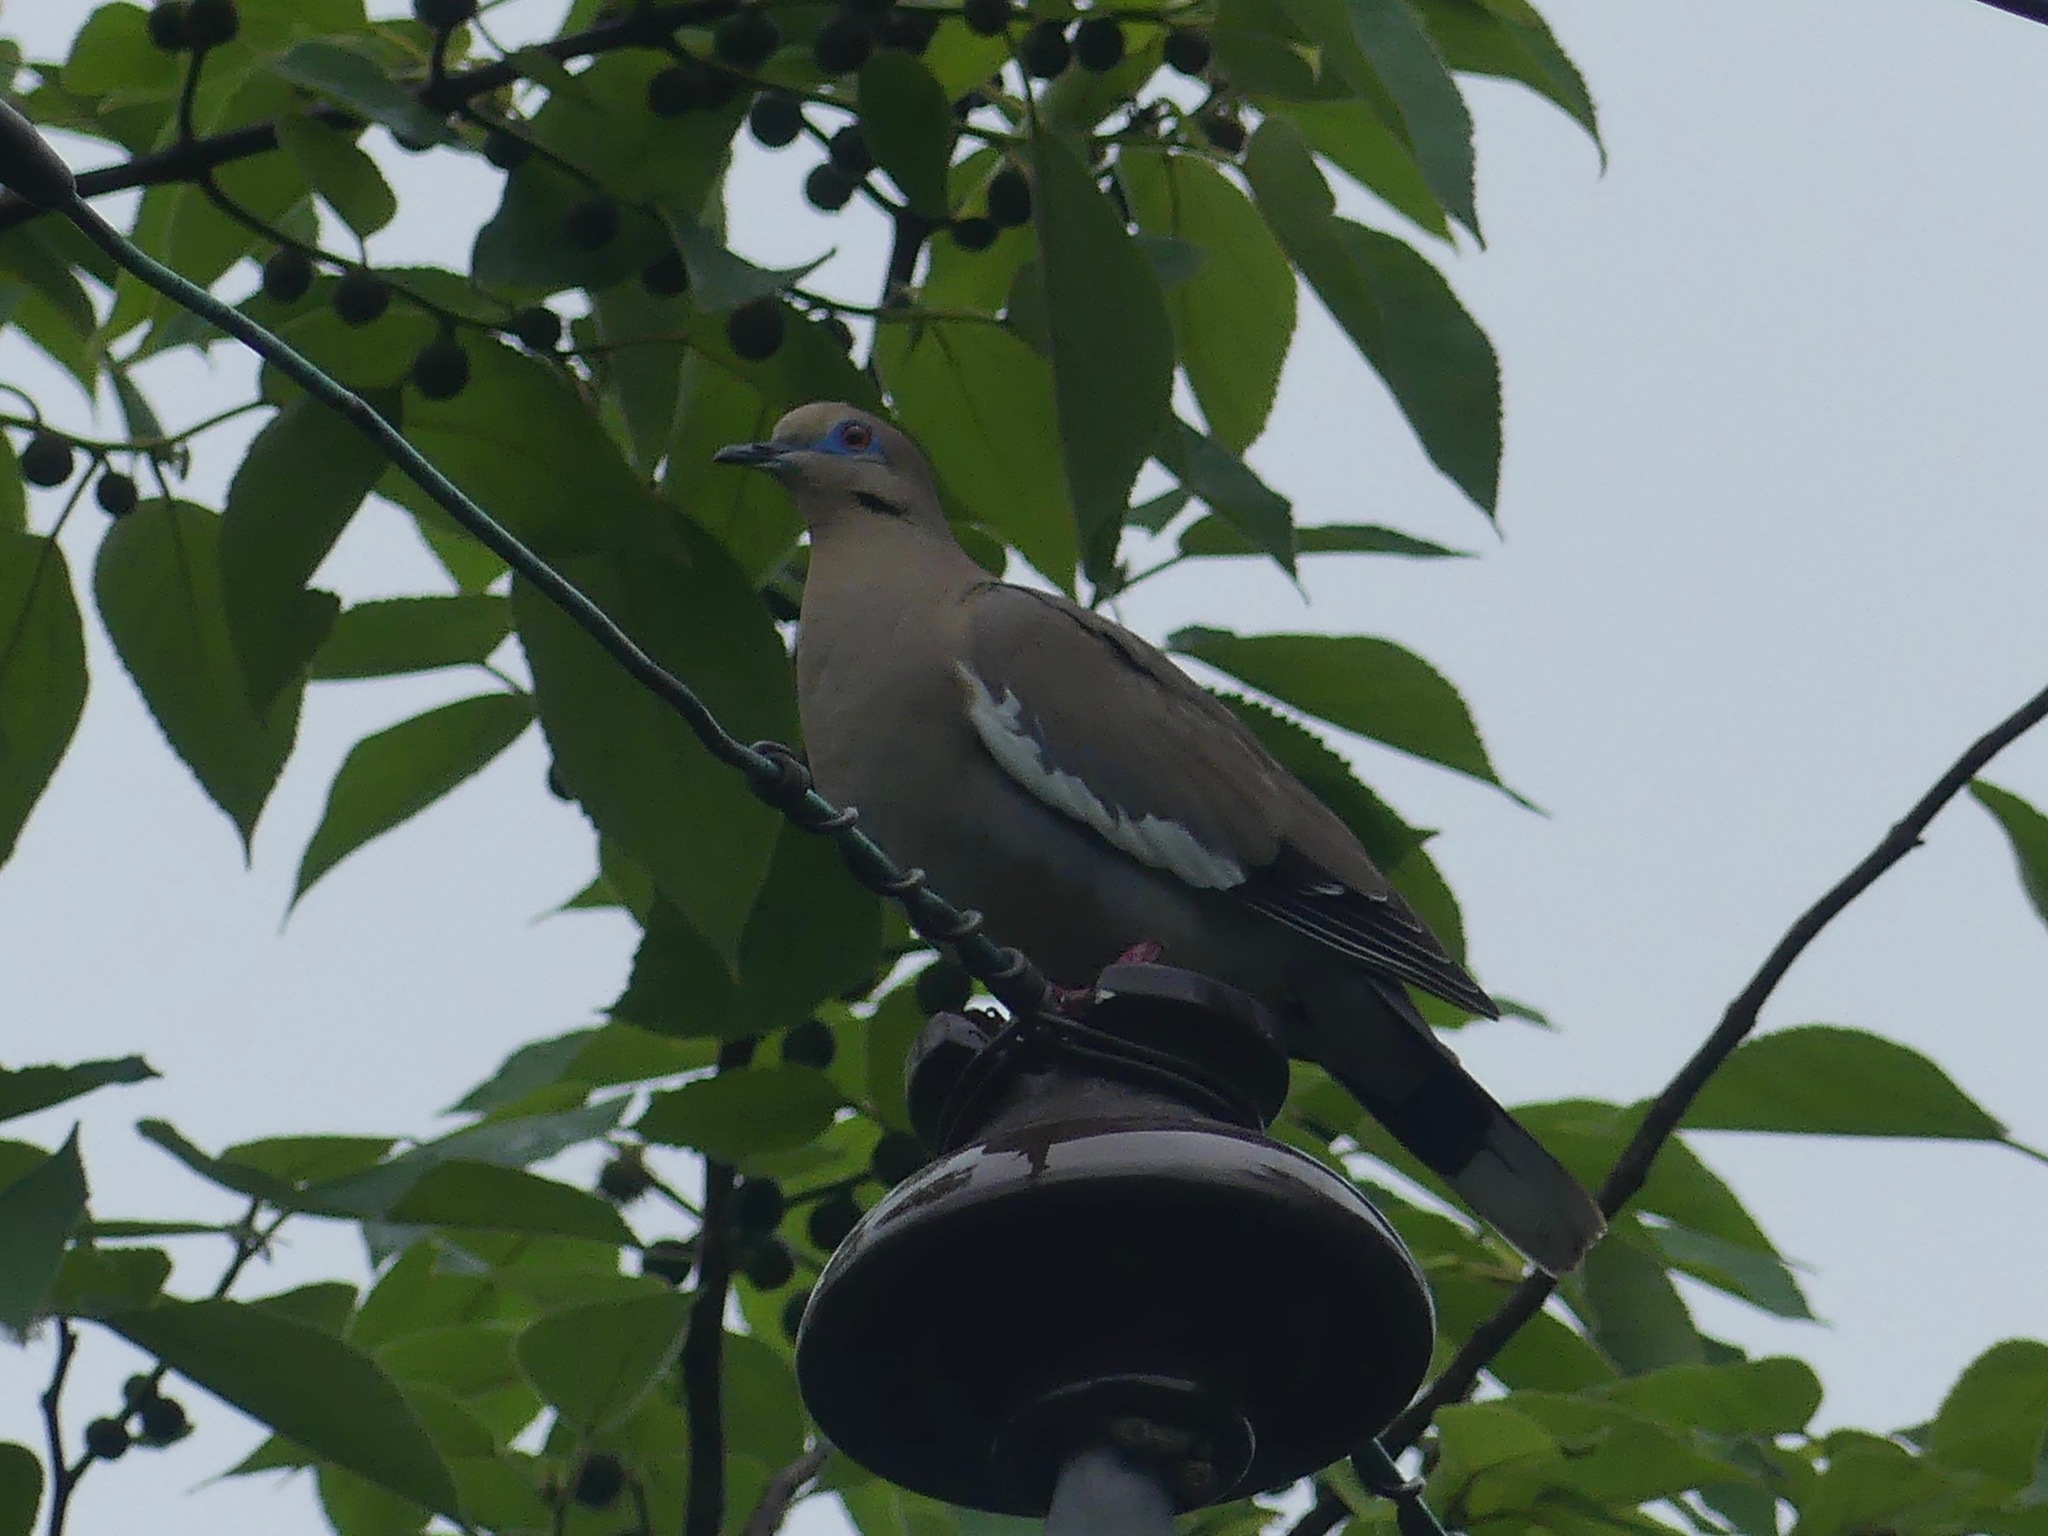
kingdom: Animalia
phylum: Chordata
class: Aves
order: Columbiformes
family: Columbidae
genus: Zenaida
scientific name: Zenaida asiatica
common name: White-winged dove
